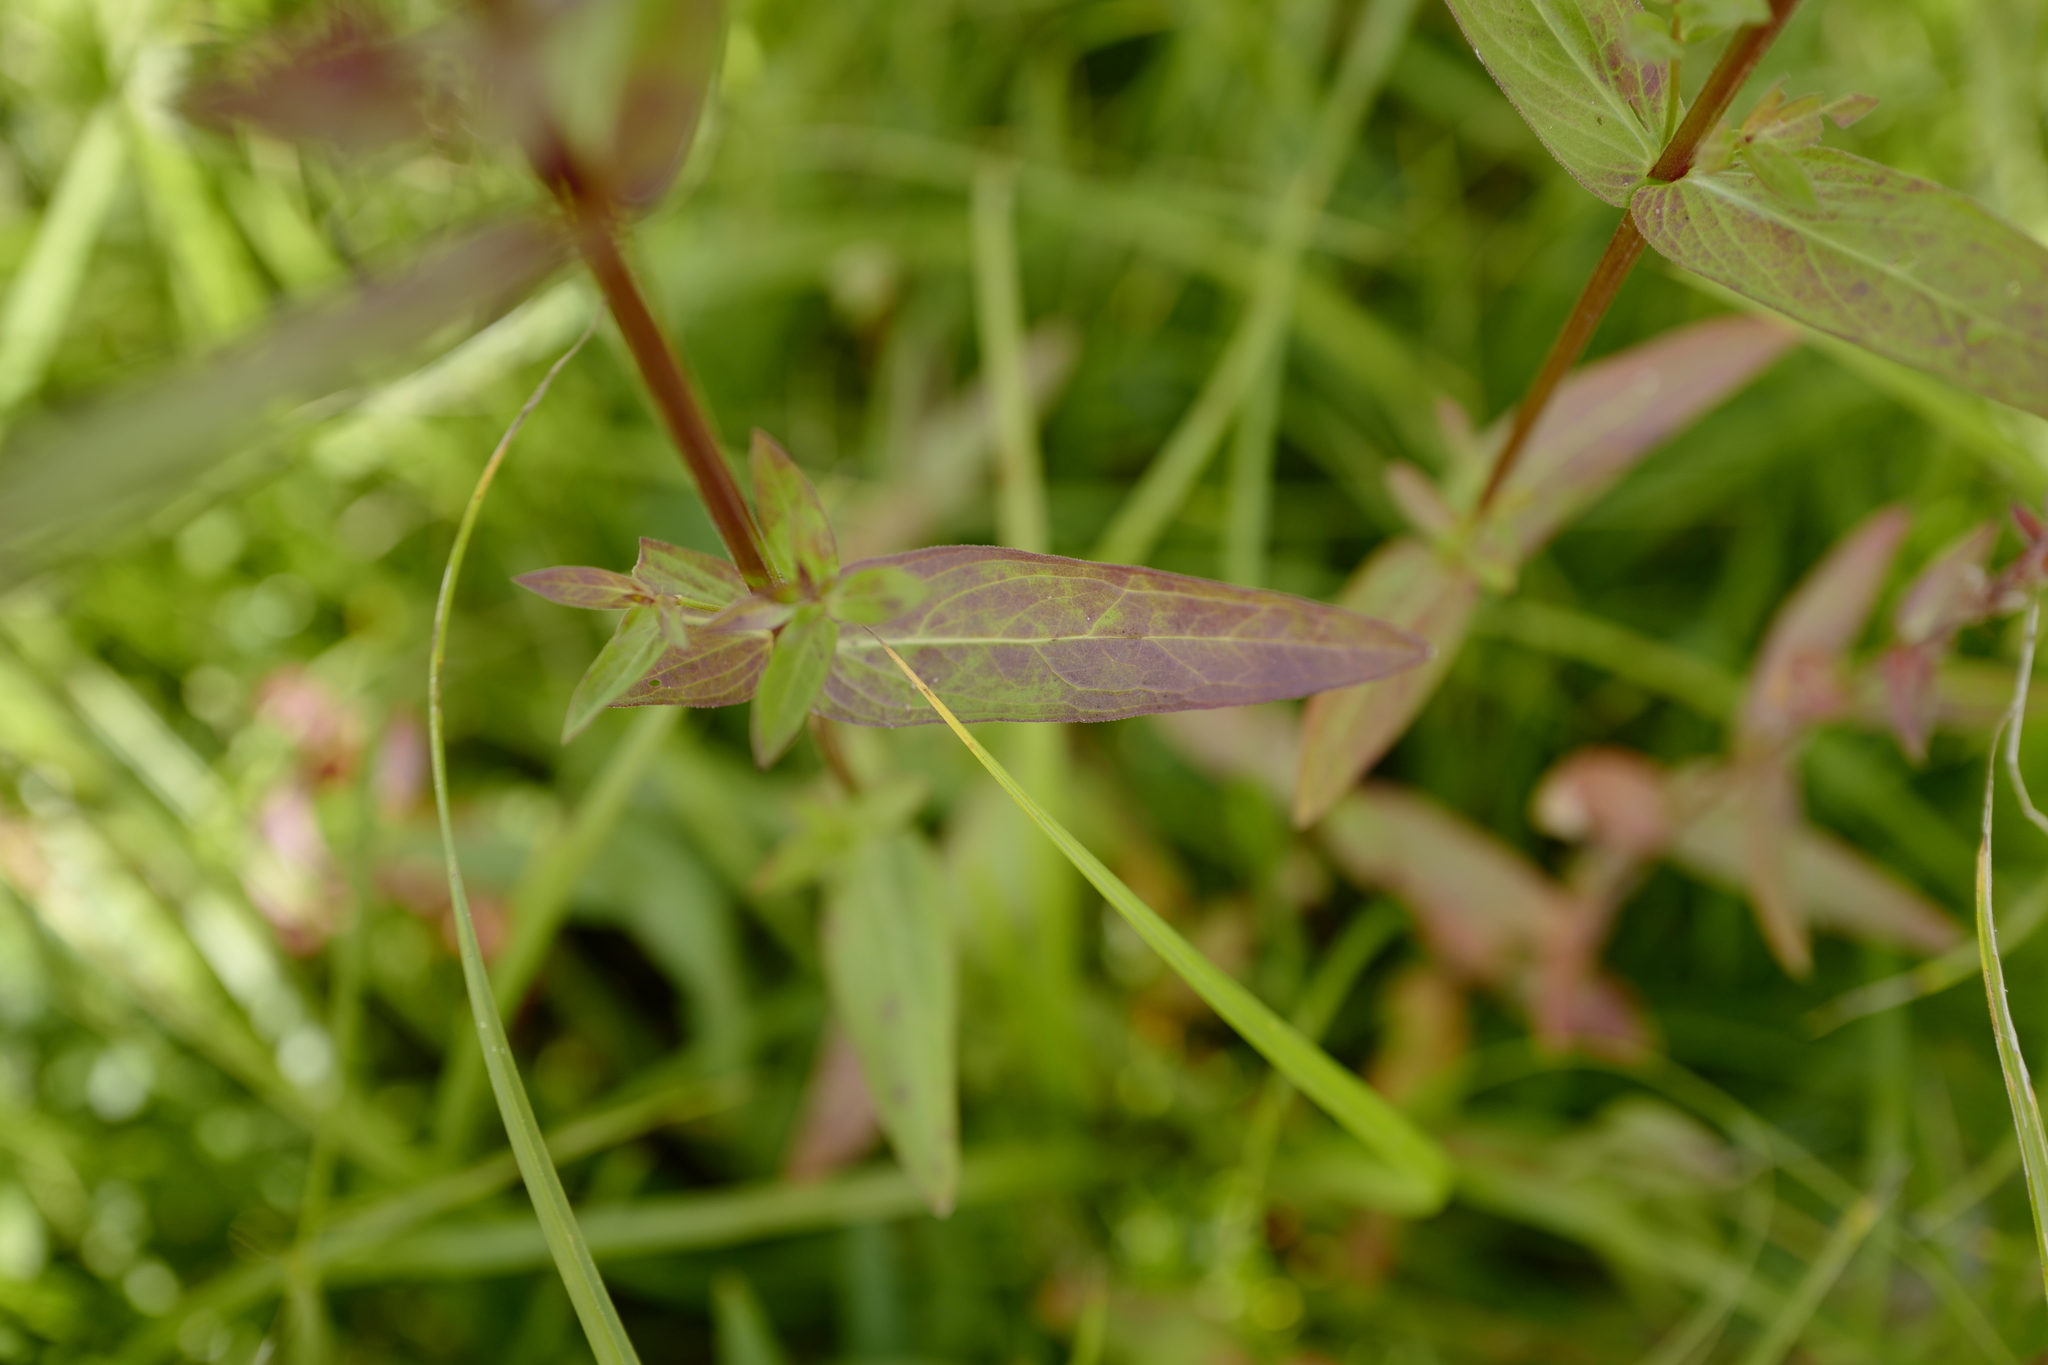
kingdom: Plantae
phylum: Tracheophyta
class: Magnoliopsida
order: Myrtales
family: Lythraceae
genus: Lythrum
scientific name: Lythrum salicaria
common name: Purple loosestrife
